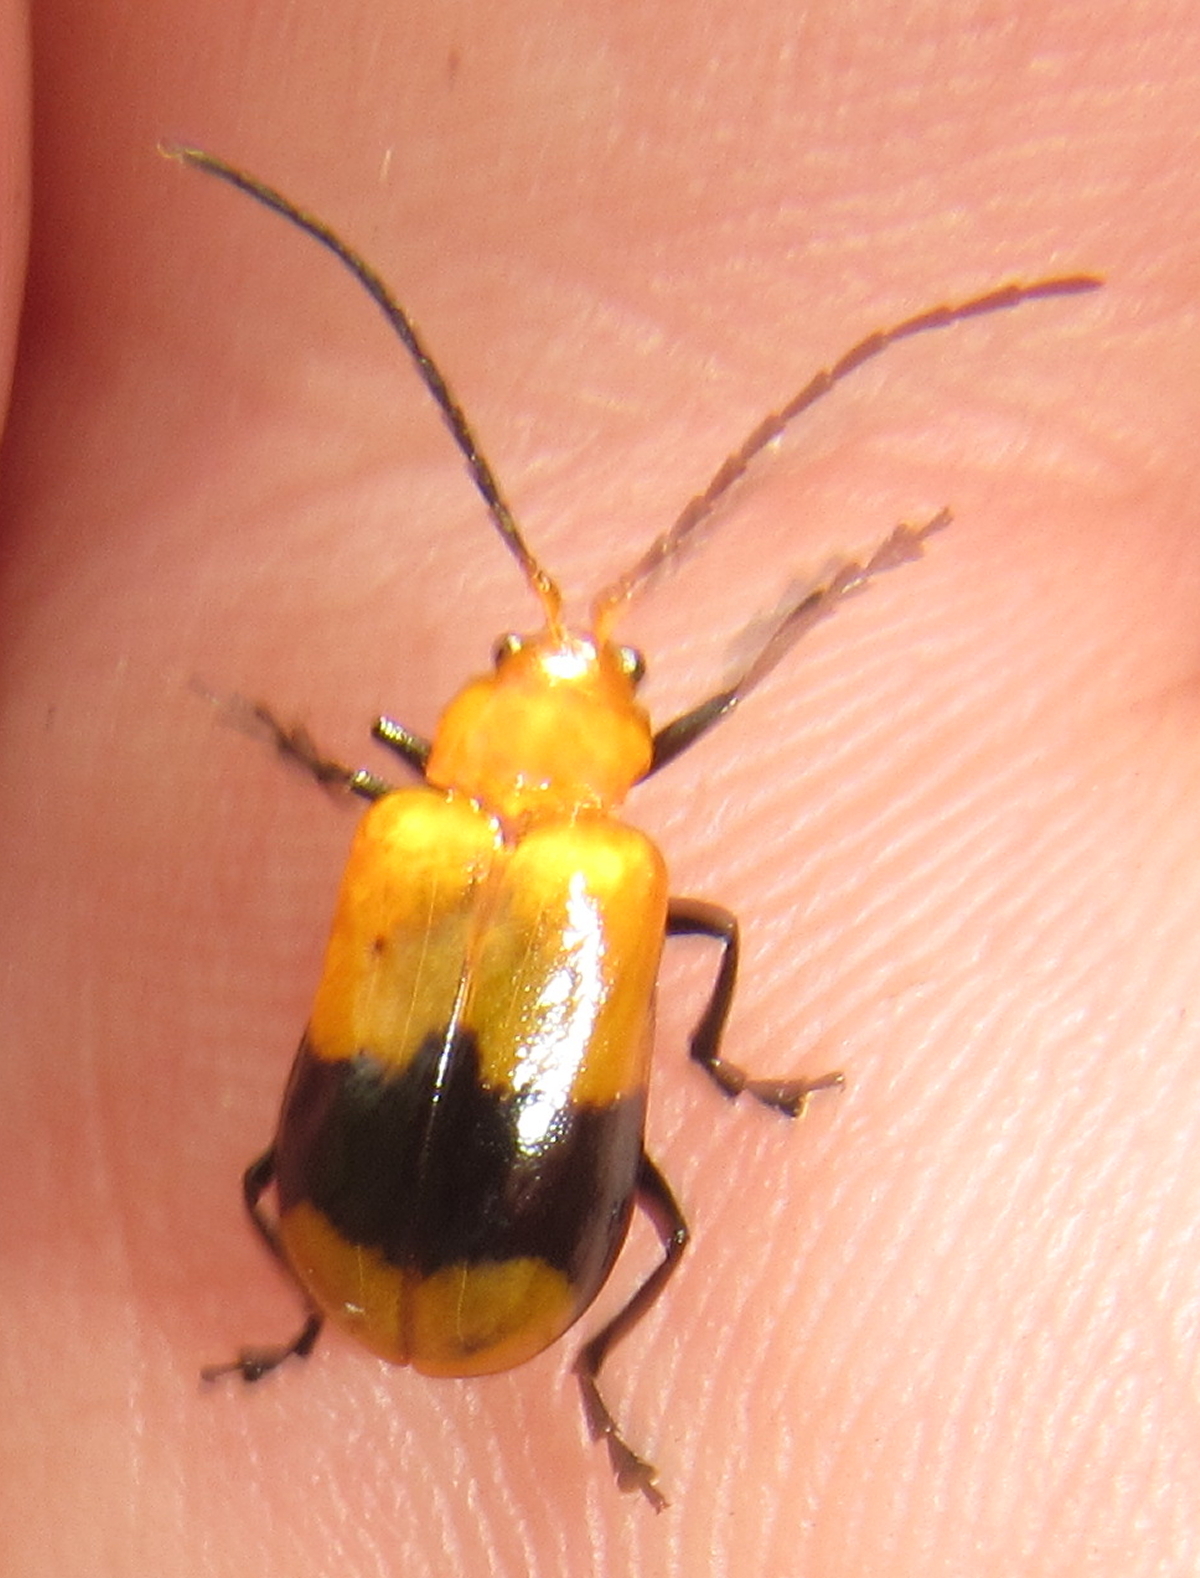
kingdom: Animalia
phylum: Arthropoda
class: Insecta
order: Coleoptera
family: Chrysomelidae
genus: Prosmidia
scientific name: Prosmidia
